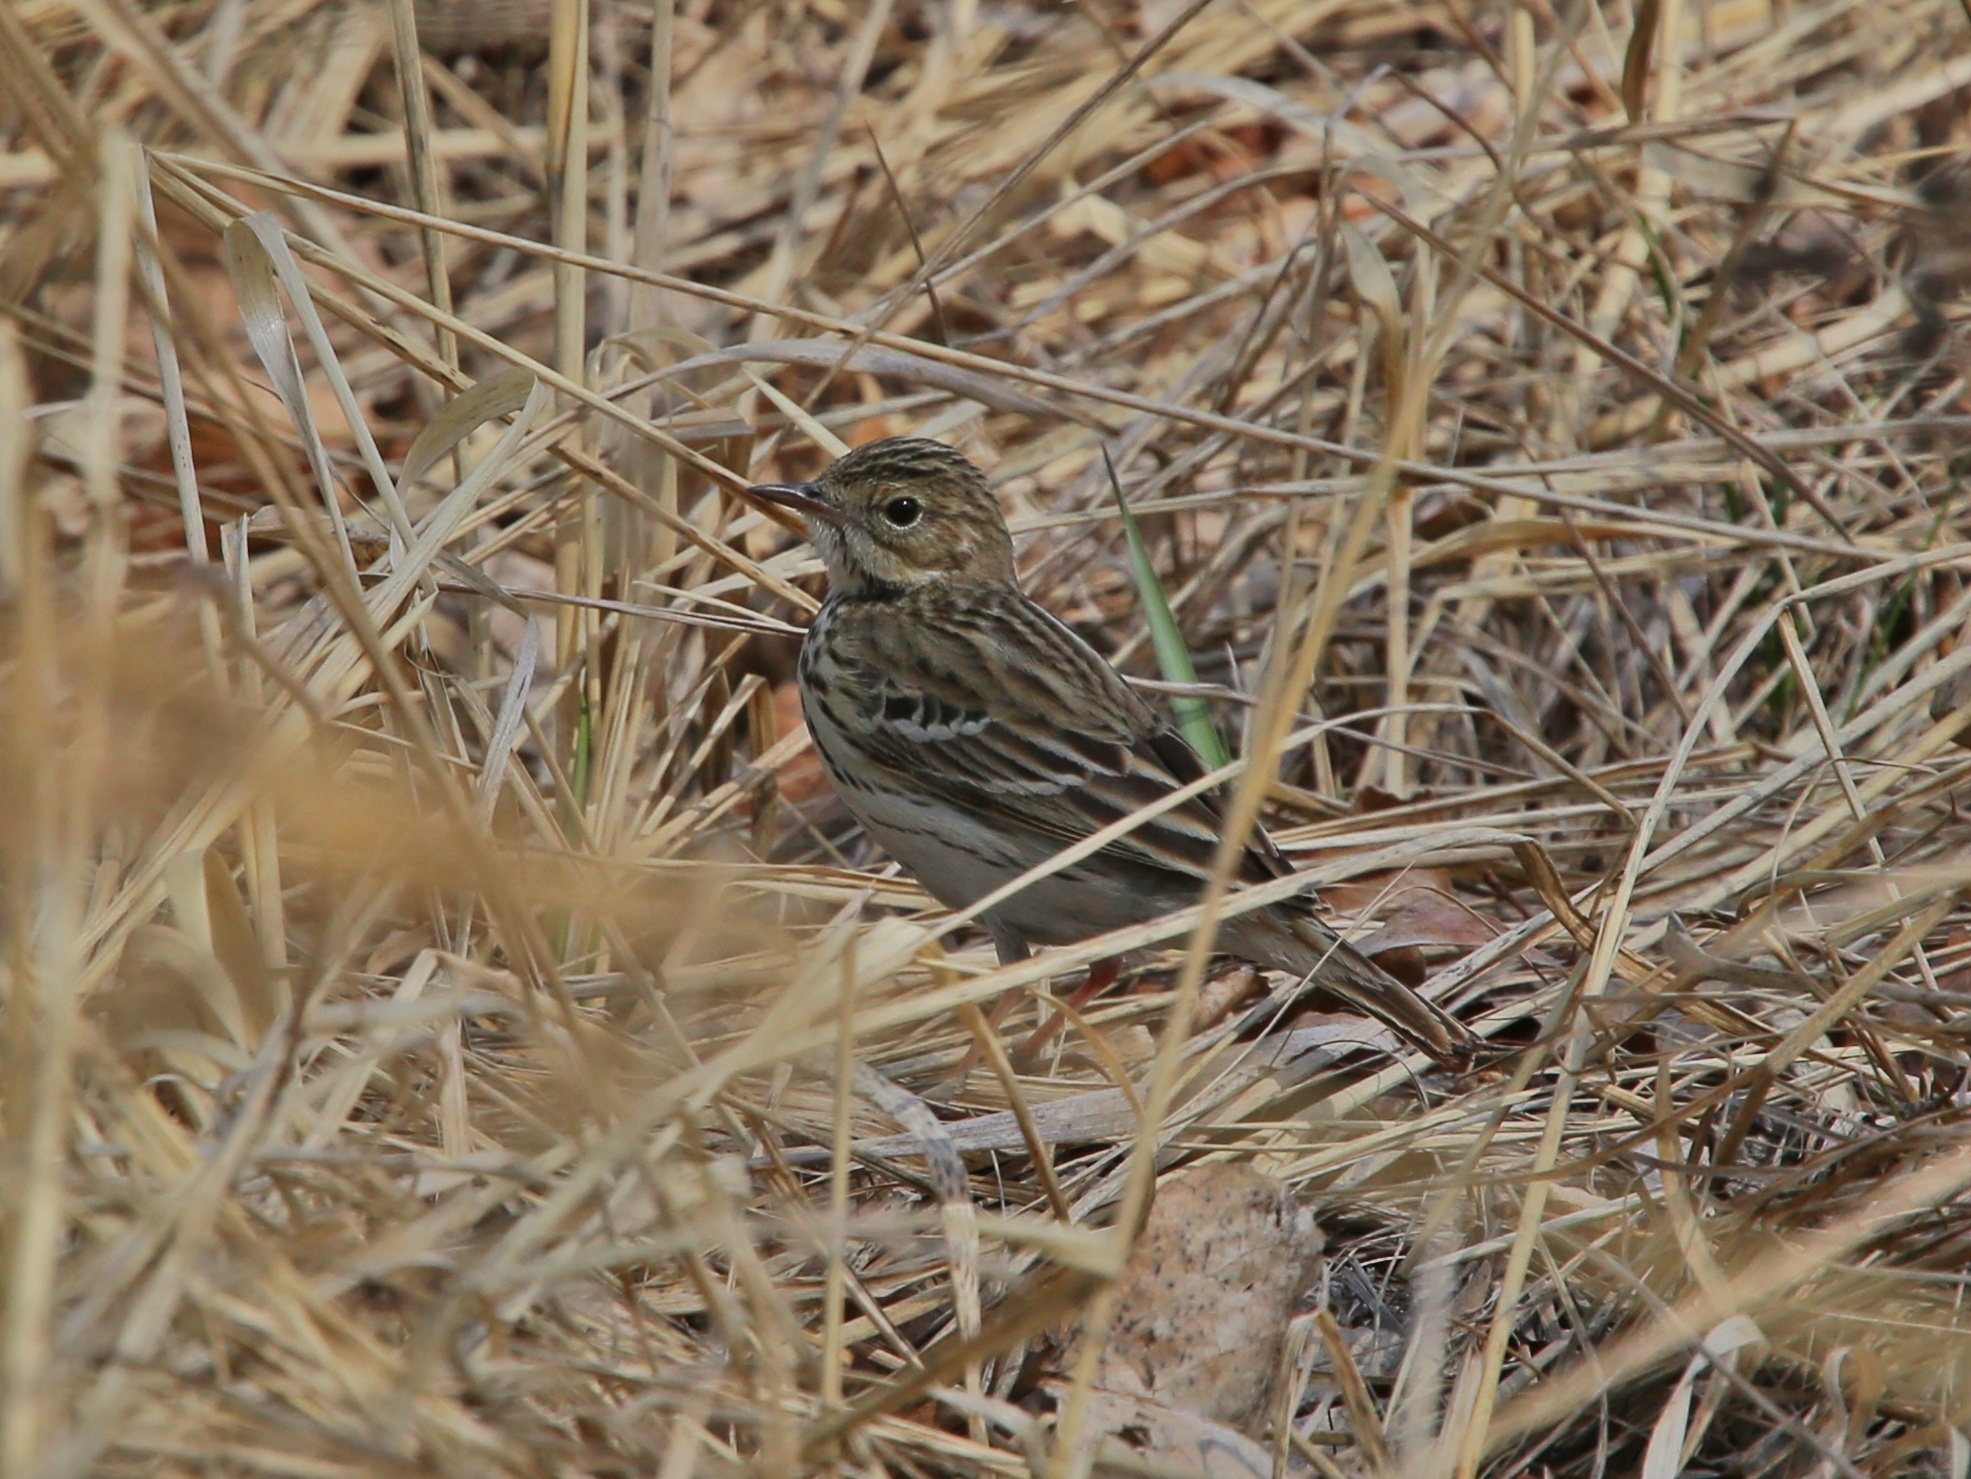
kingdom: Animalia
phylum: Chordata
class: Aves
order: Passeriformes
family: Motacillidae
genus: Anthus
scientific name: Anthus trivialis
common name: Tree pipit
